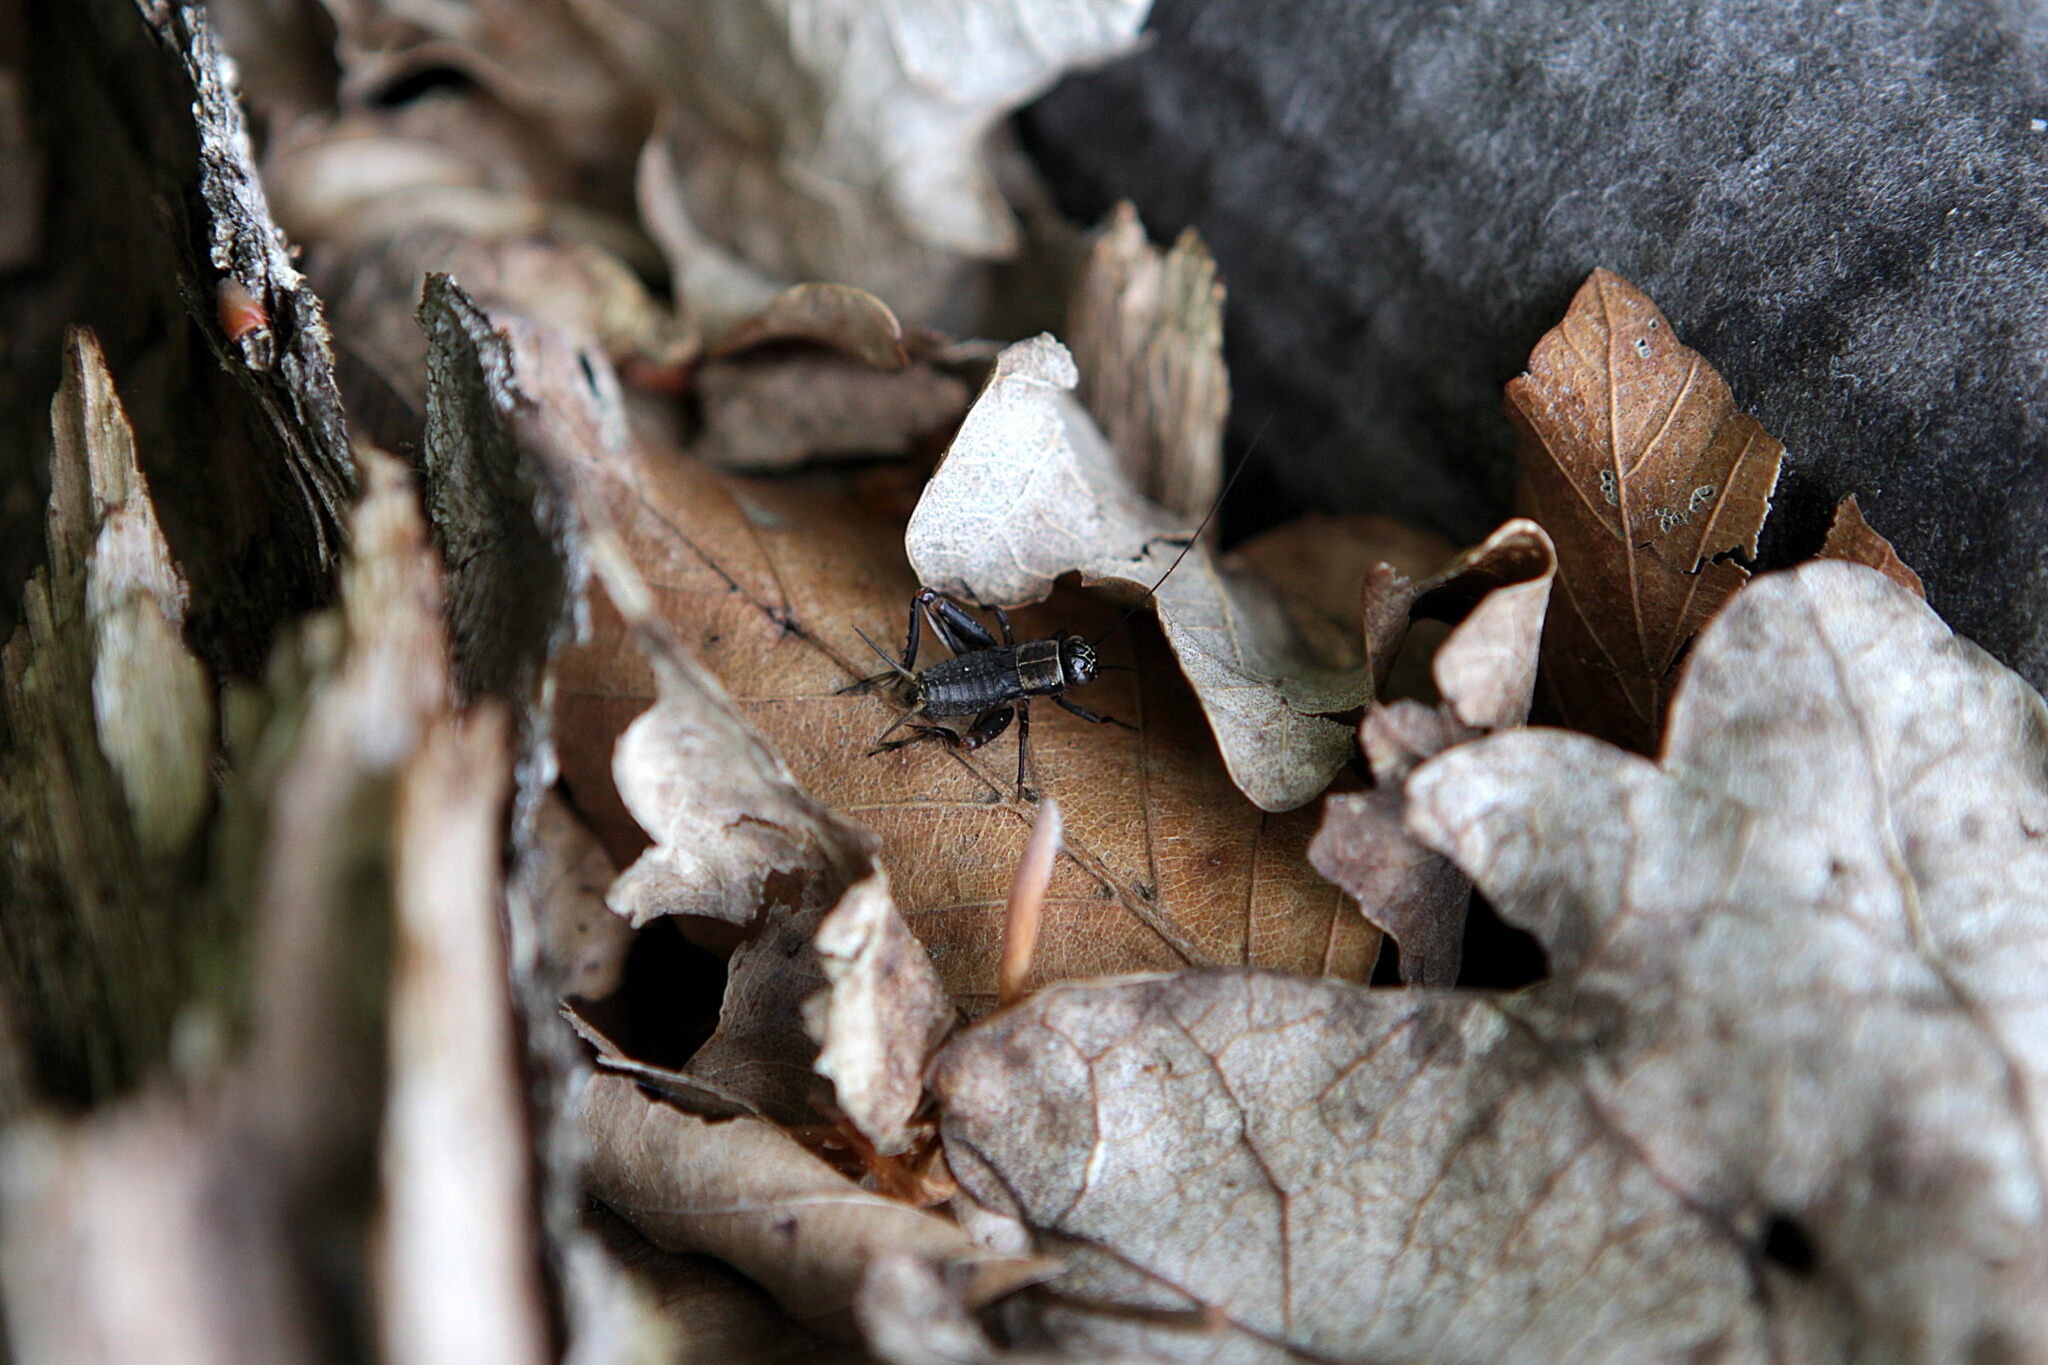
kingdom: Animalia
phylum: Arthropoda
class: Insecta
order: Orthoptera
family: Trigonidiidae
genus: Nemobius
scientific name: Nemobius sylvestris
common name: Wood-cricket
